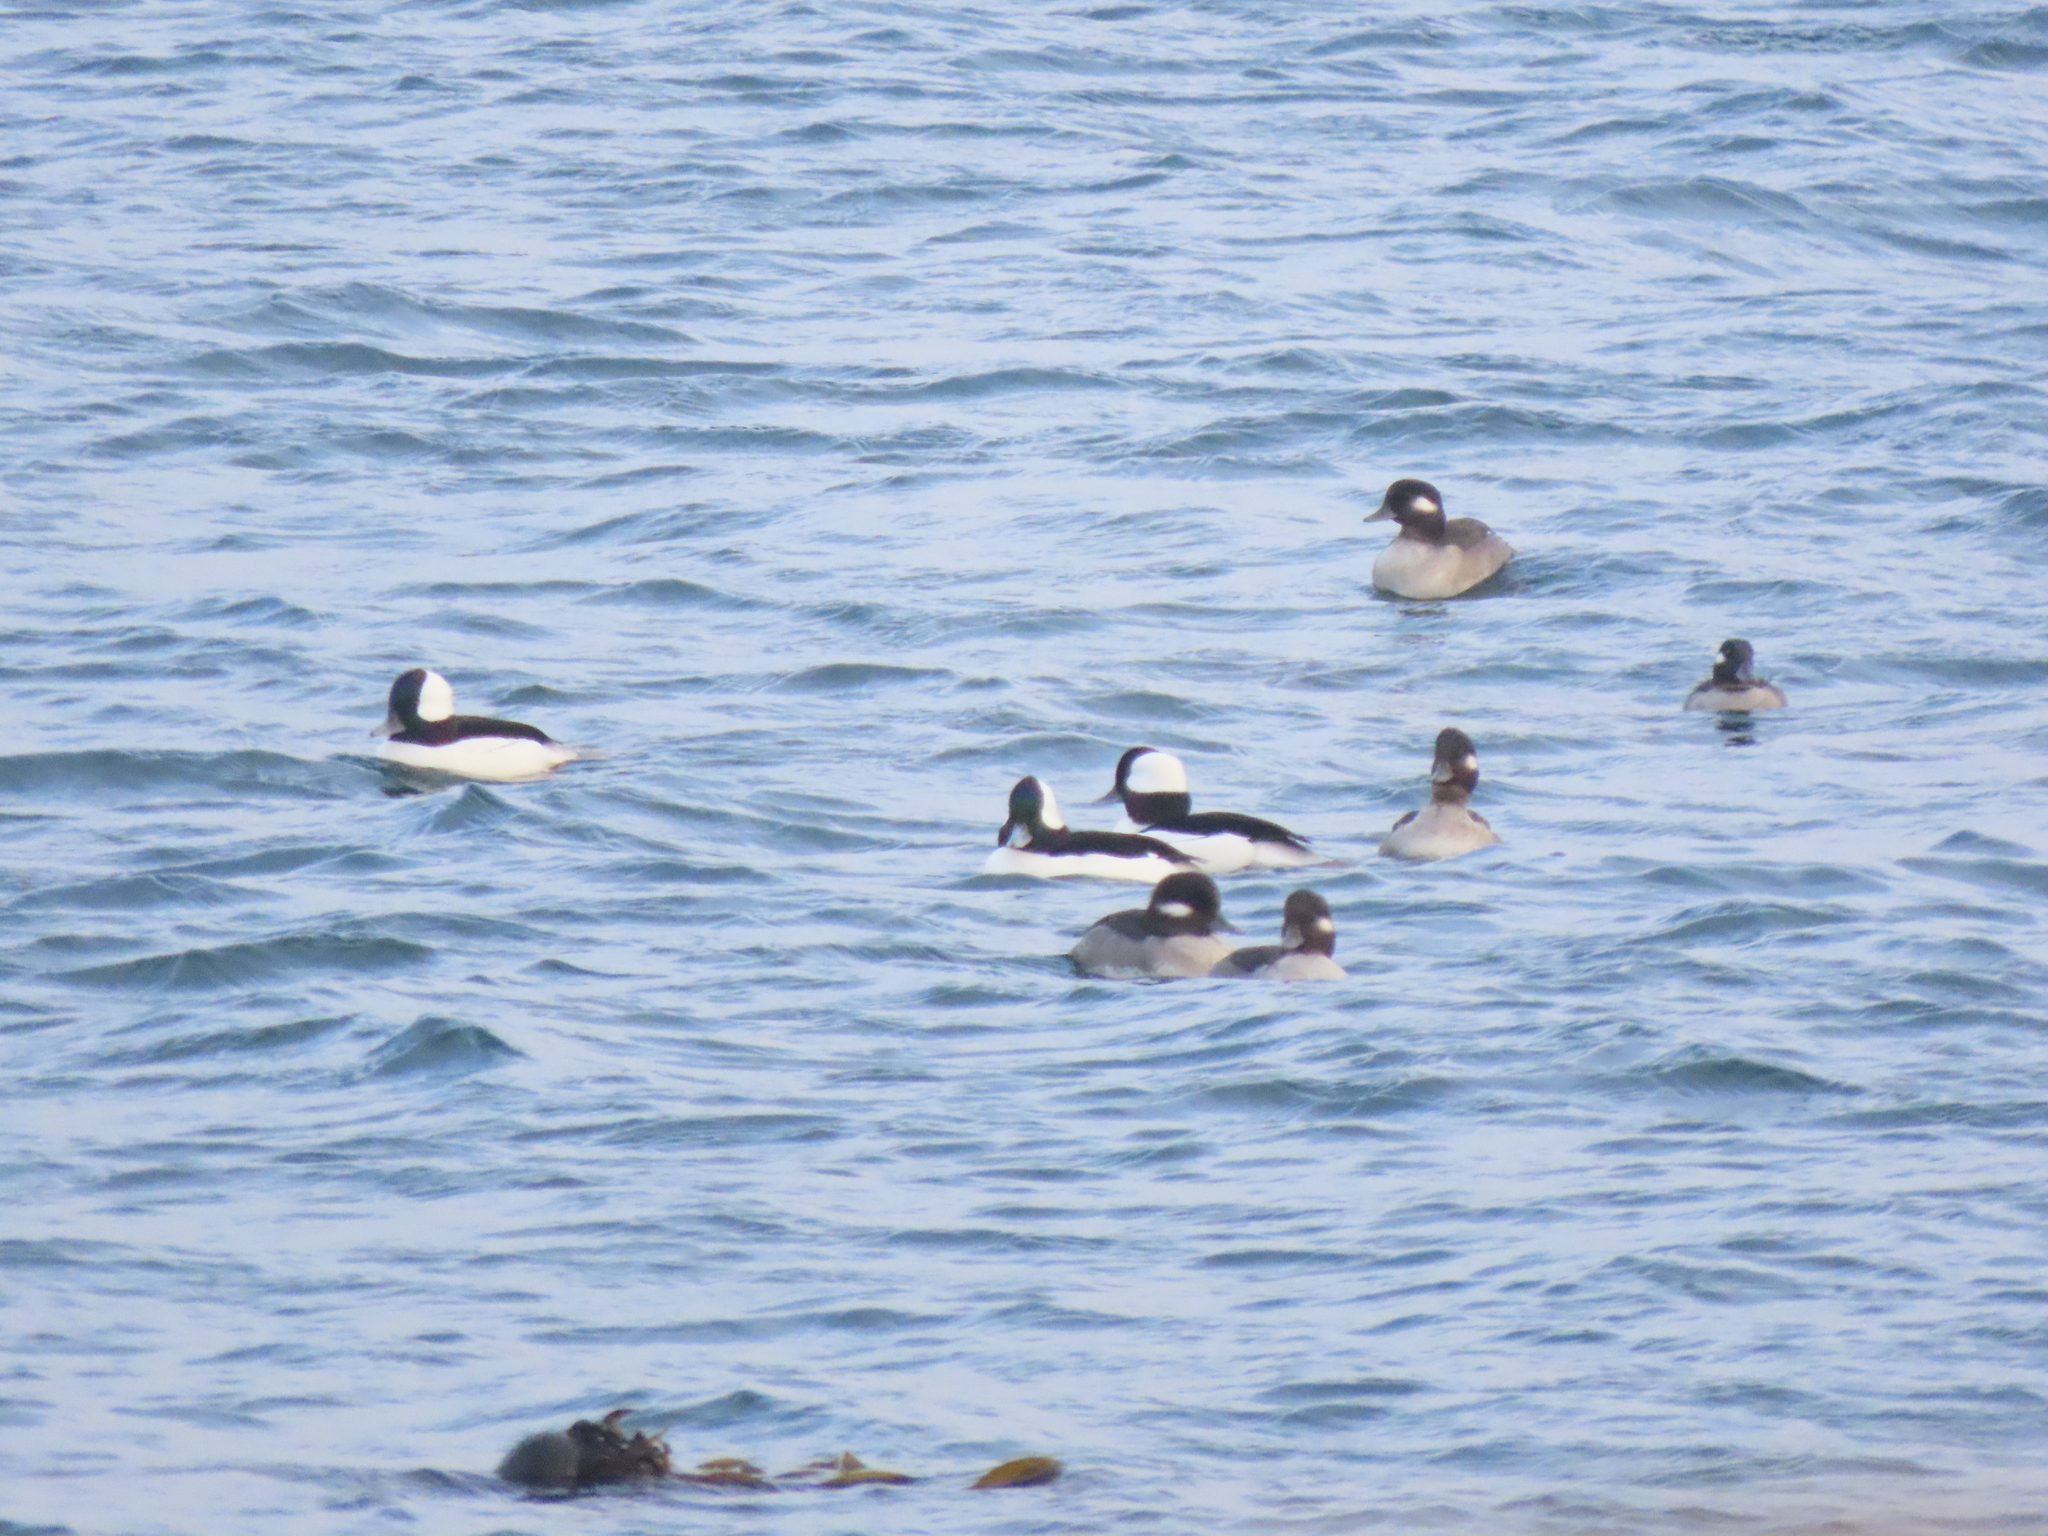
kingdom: Animalia
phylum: Chordata
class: Aves
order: Anseriformes
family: Anatidae
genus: Bucephala
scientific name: Bucephala albeola
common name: Bufflehead
